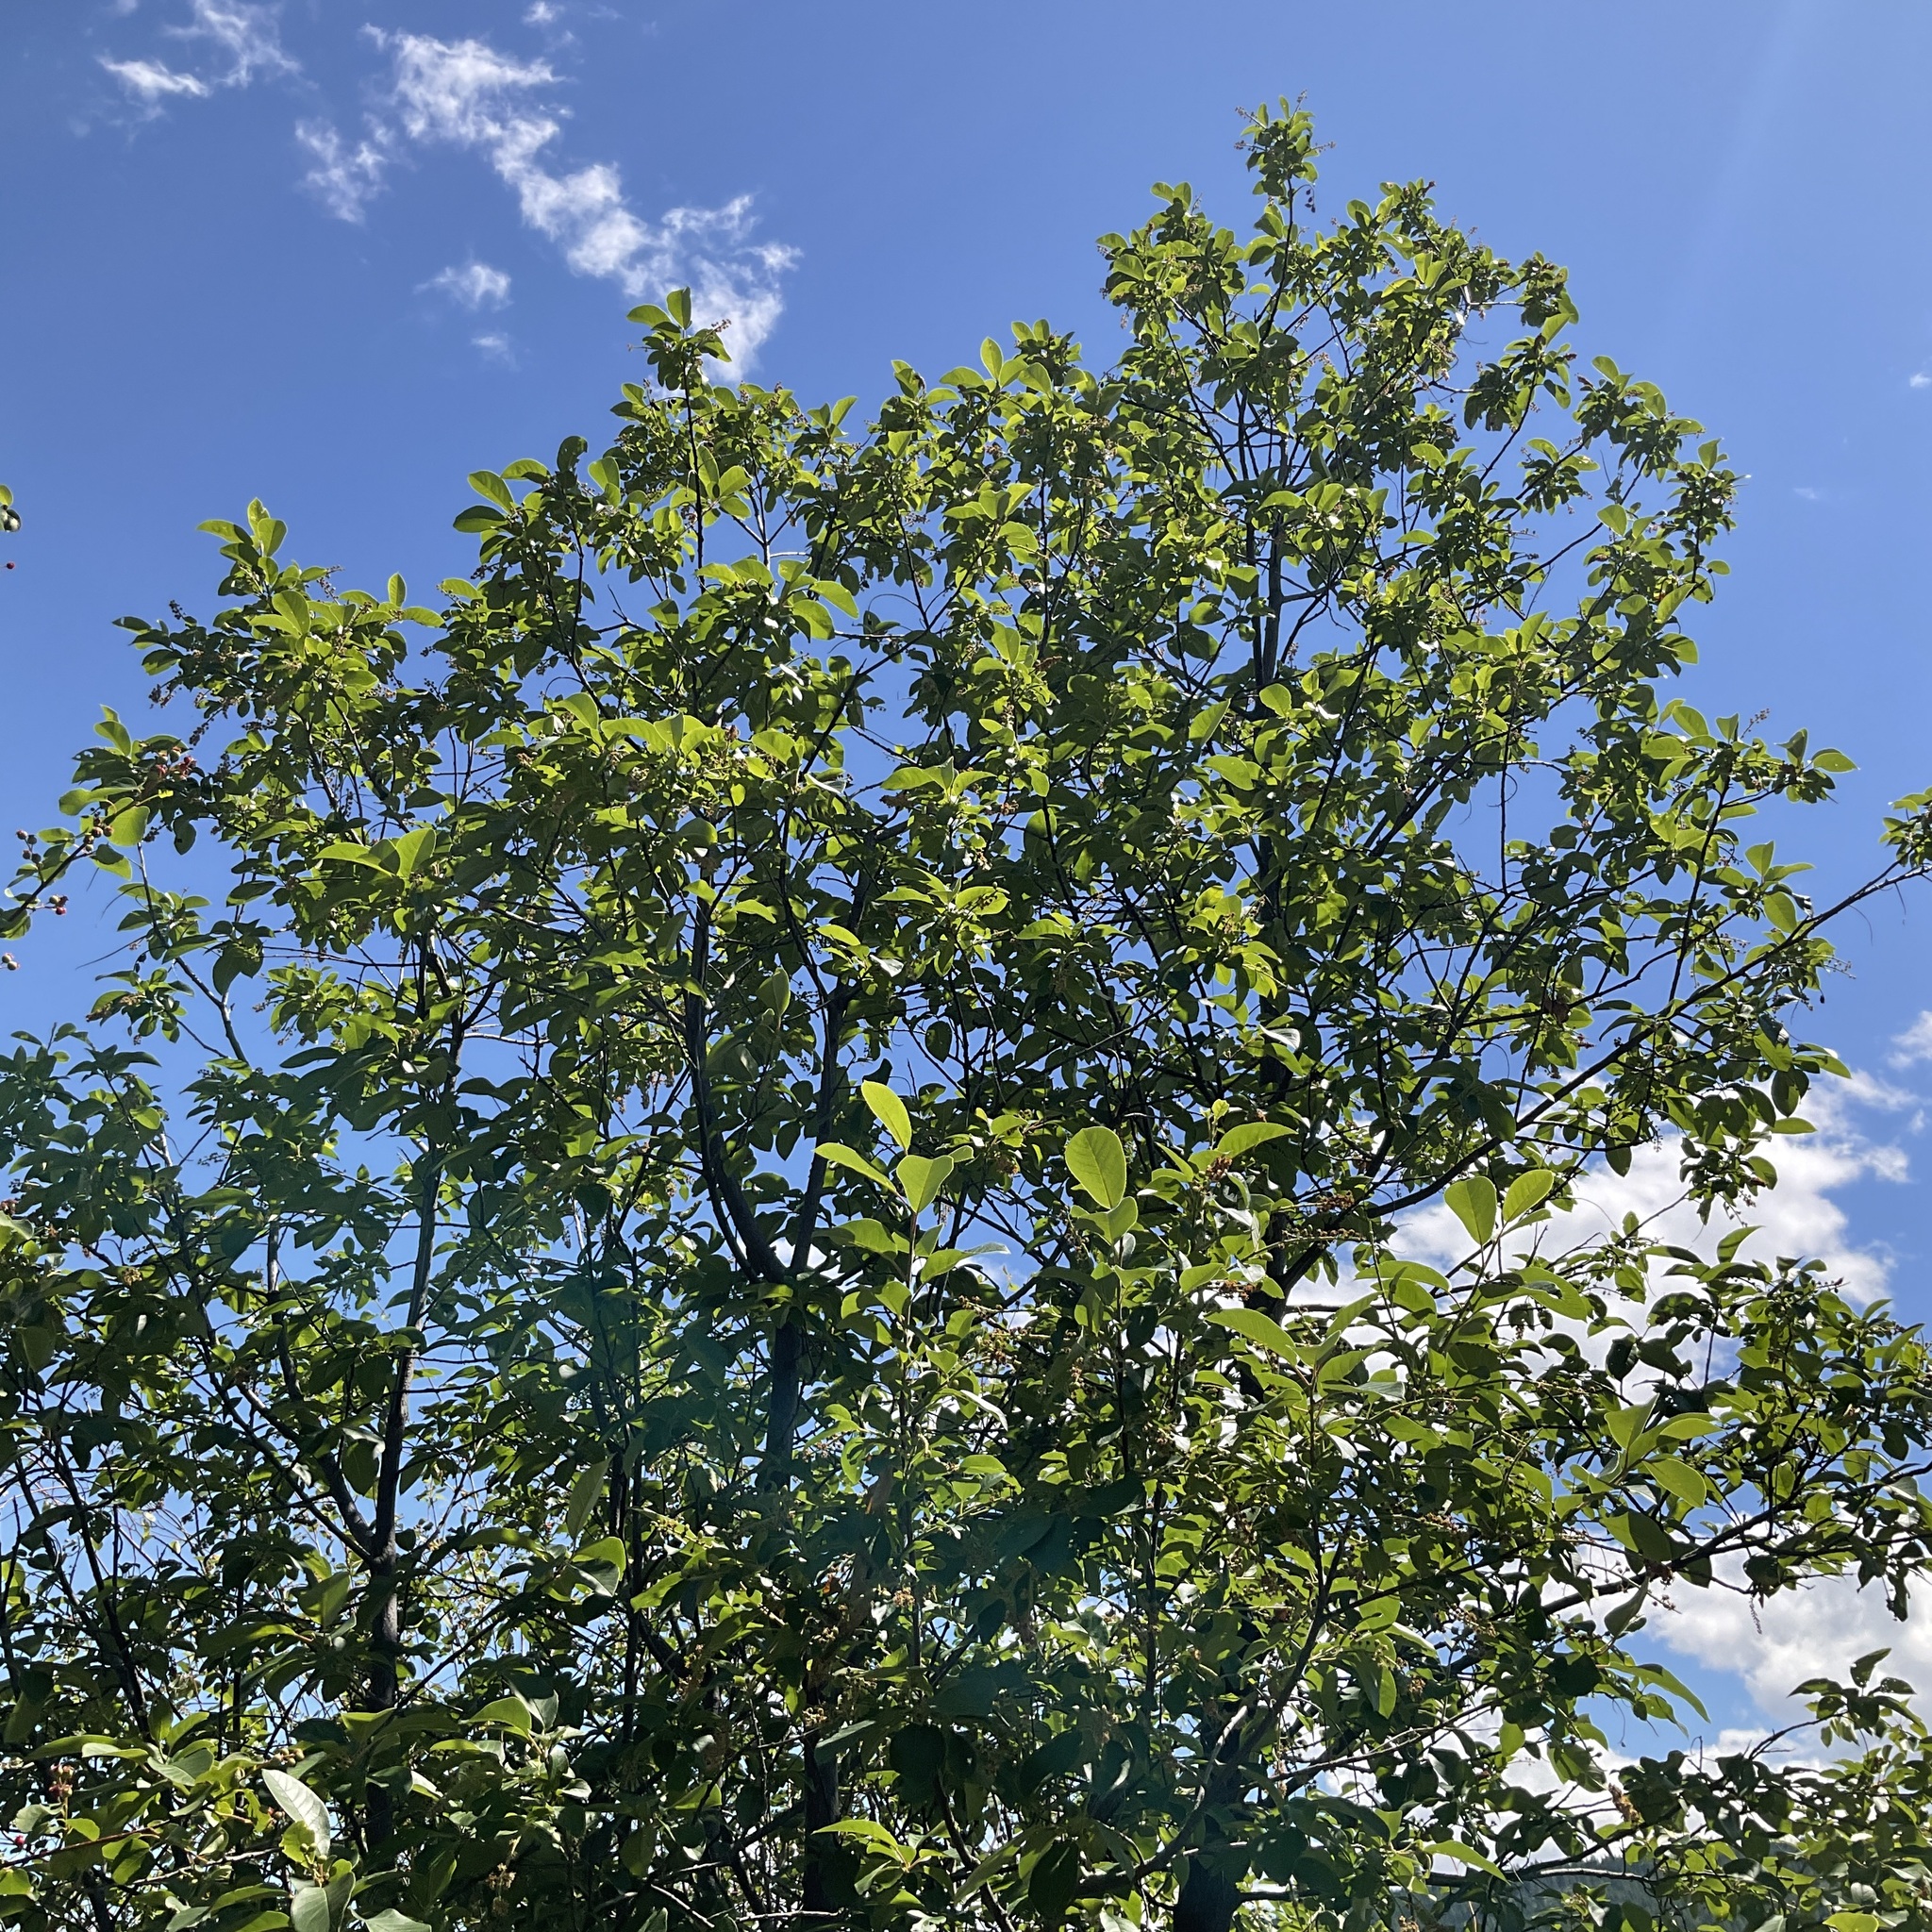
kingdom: Plantae
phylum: Tracheophyta
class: Magnoliopsida
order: Rosales
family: Rosaceae
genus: Prunus
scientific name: Prunus virginiana
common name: Chokecherry
